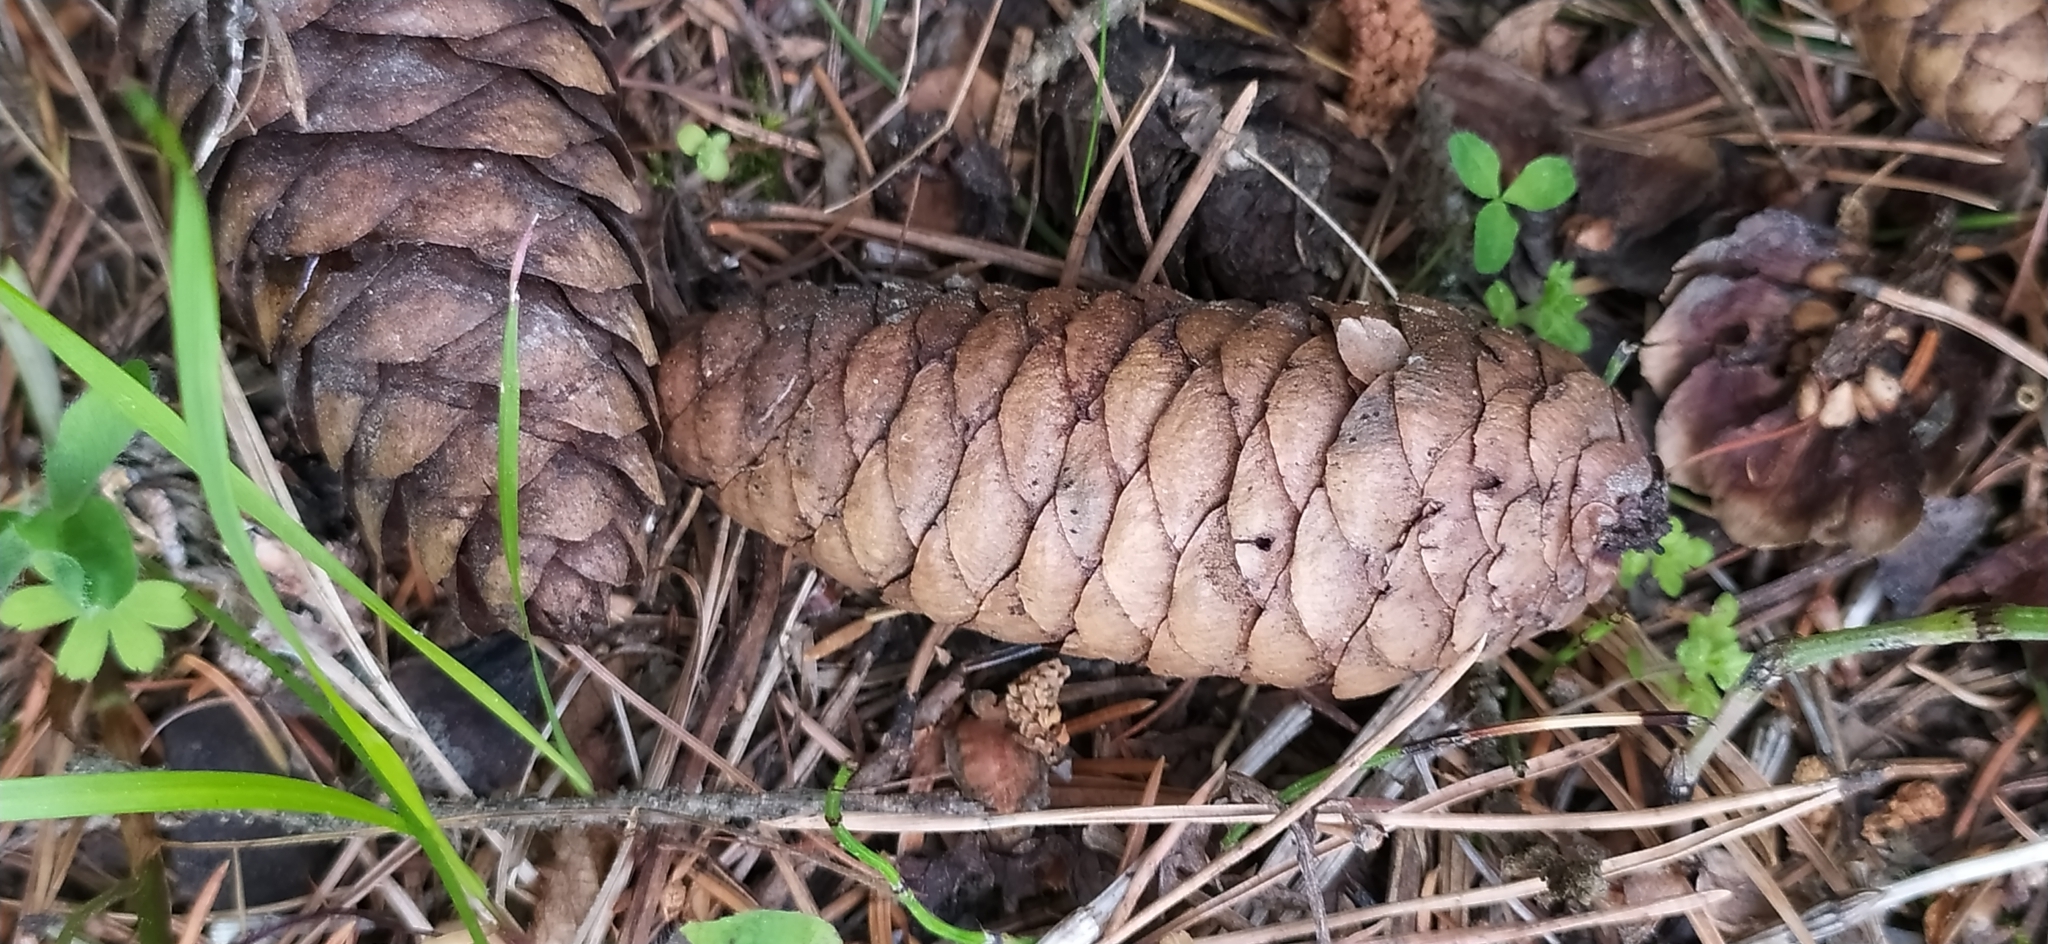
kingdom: Plantae
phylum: Tracheophyta
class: Pinopsida
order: Pinales
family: Pinaceae
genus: Picea
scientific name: Picea obovata
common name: Siberian spruce
